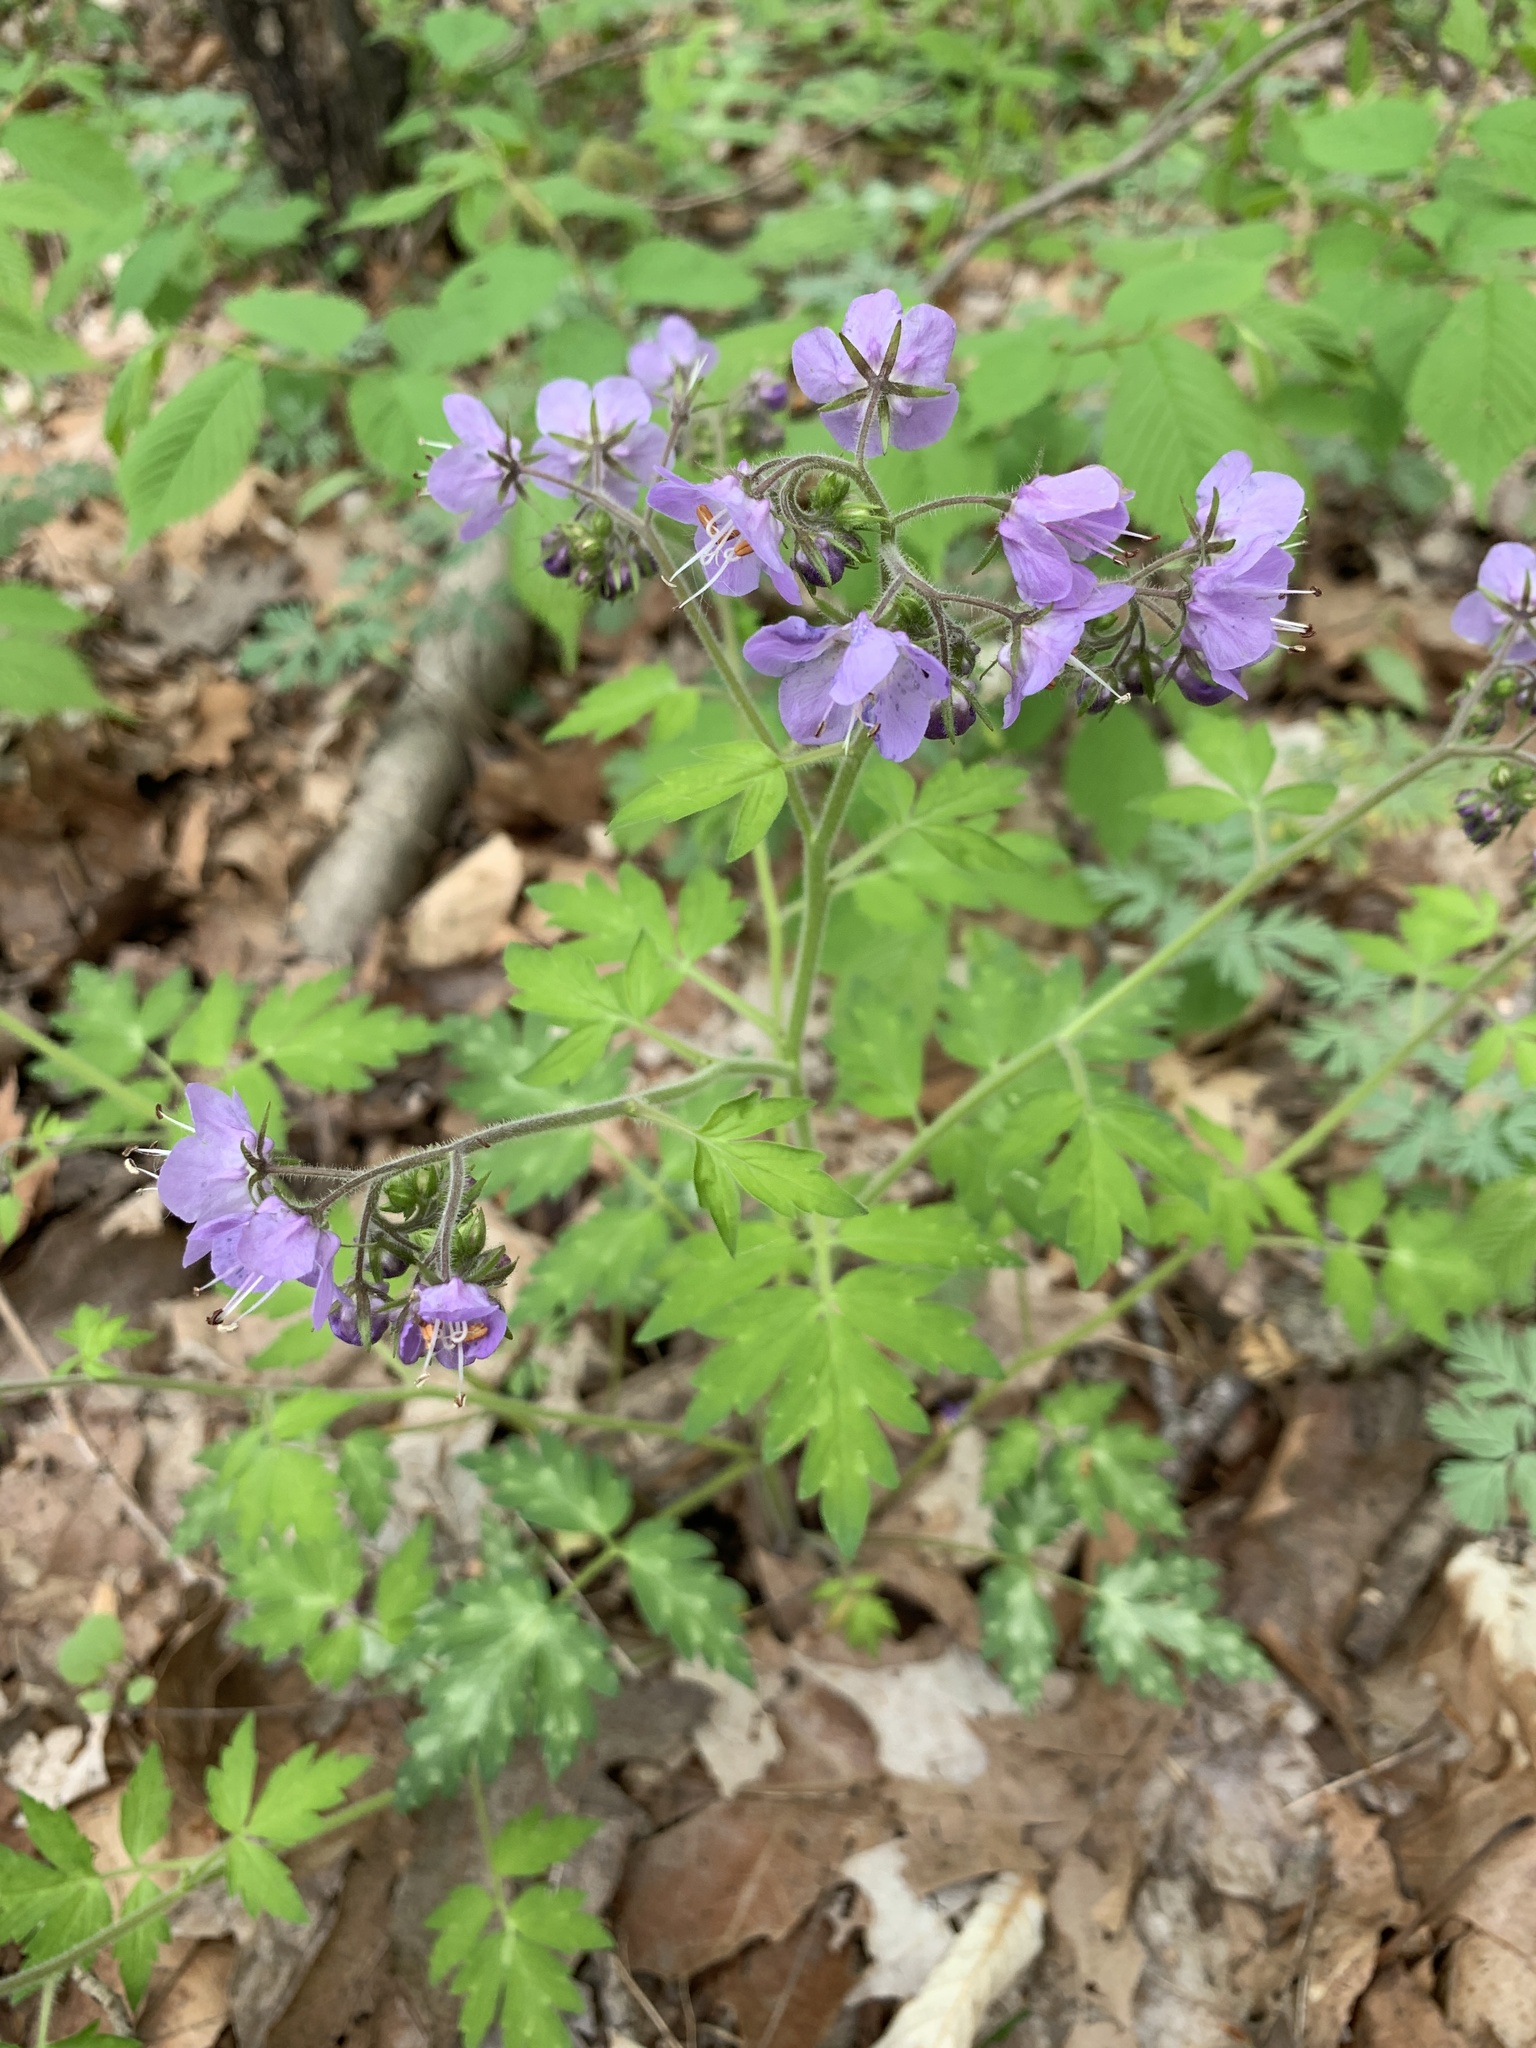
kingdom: Plantae
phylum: Tracheophyta
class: Magnoliopsida
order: Boraginales
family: Hydrophyllaceae
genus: Phacelia
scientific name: Phacelia bipinnatifida
